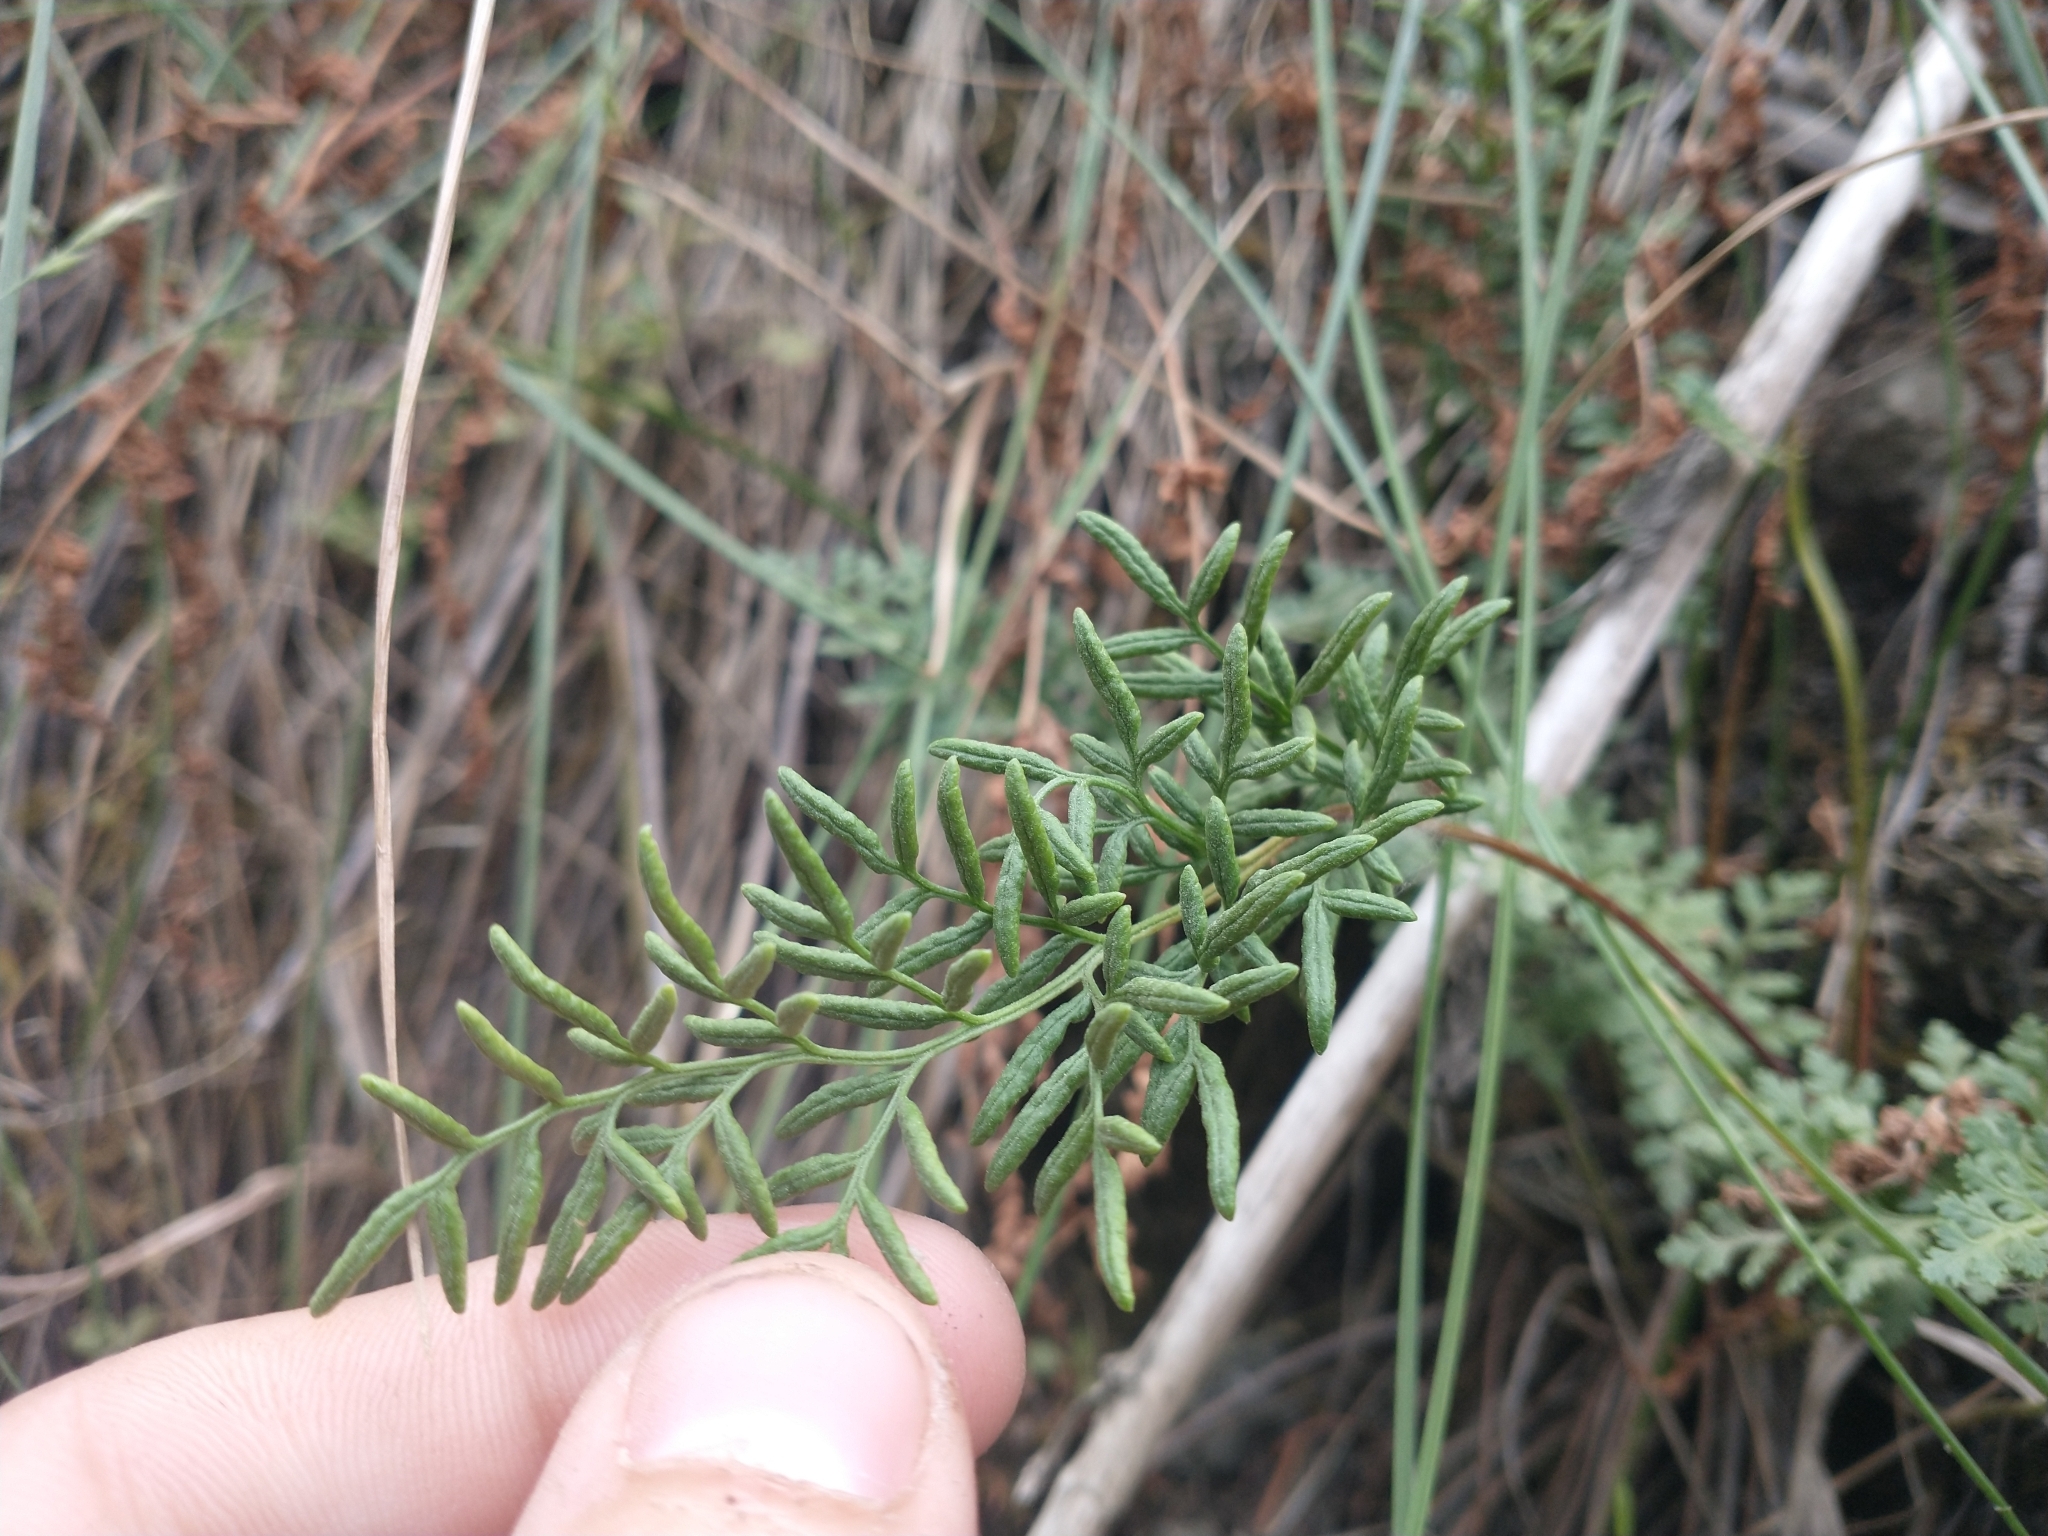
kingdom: Plantae
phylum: Tracheophyta
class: Polypodiopsida
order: Polypodiales
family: Pteridaceae
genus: Cryptogramma
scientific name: Cryptogramma acrostichoides
